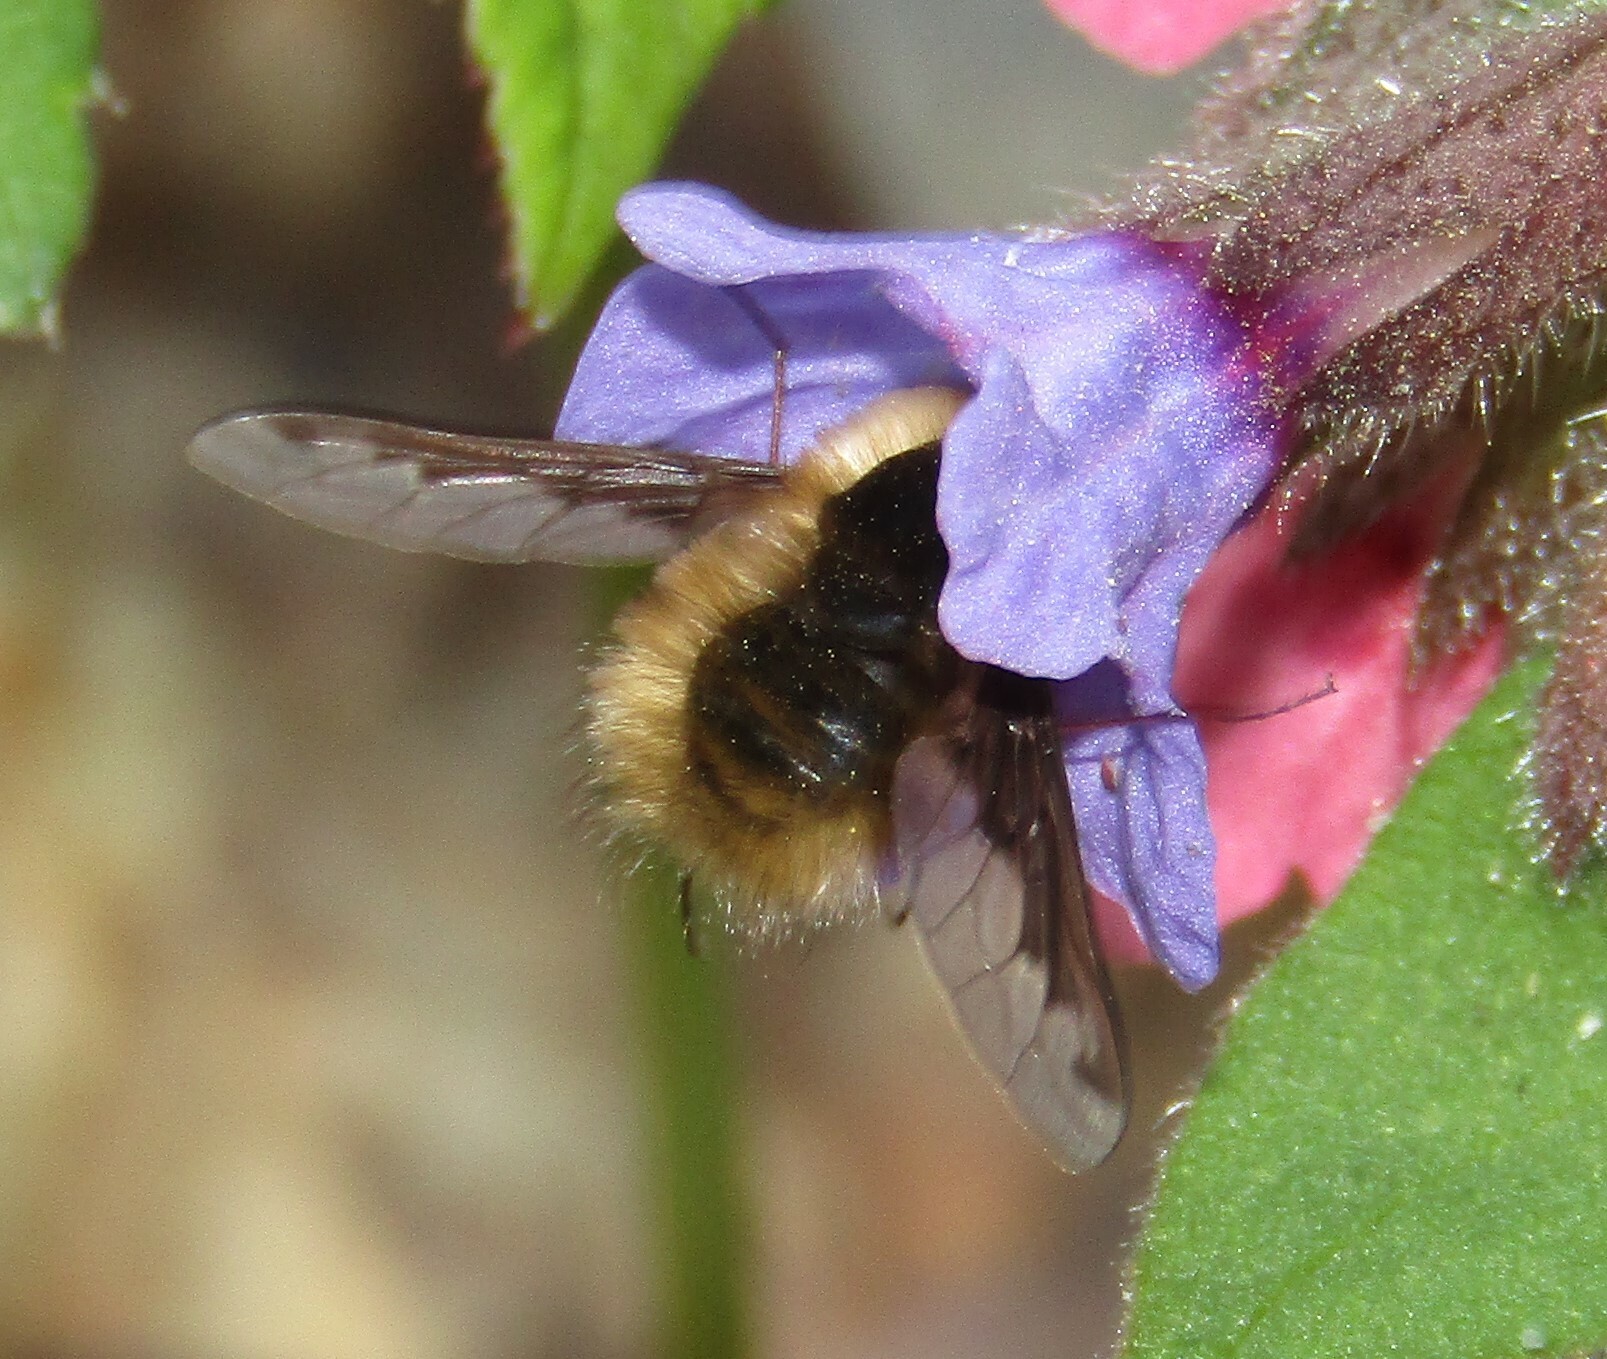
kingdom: Animalia
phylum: Arthropoda
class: Insecta
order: Diptera
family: Bombyliidae
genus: Bombylius
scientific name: Bombylius major
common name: Bee fly
